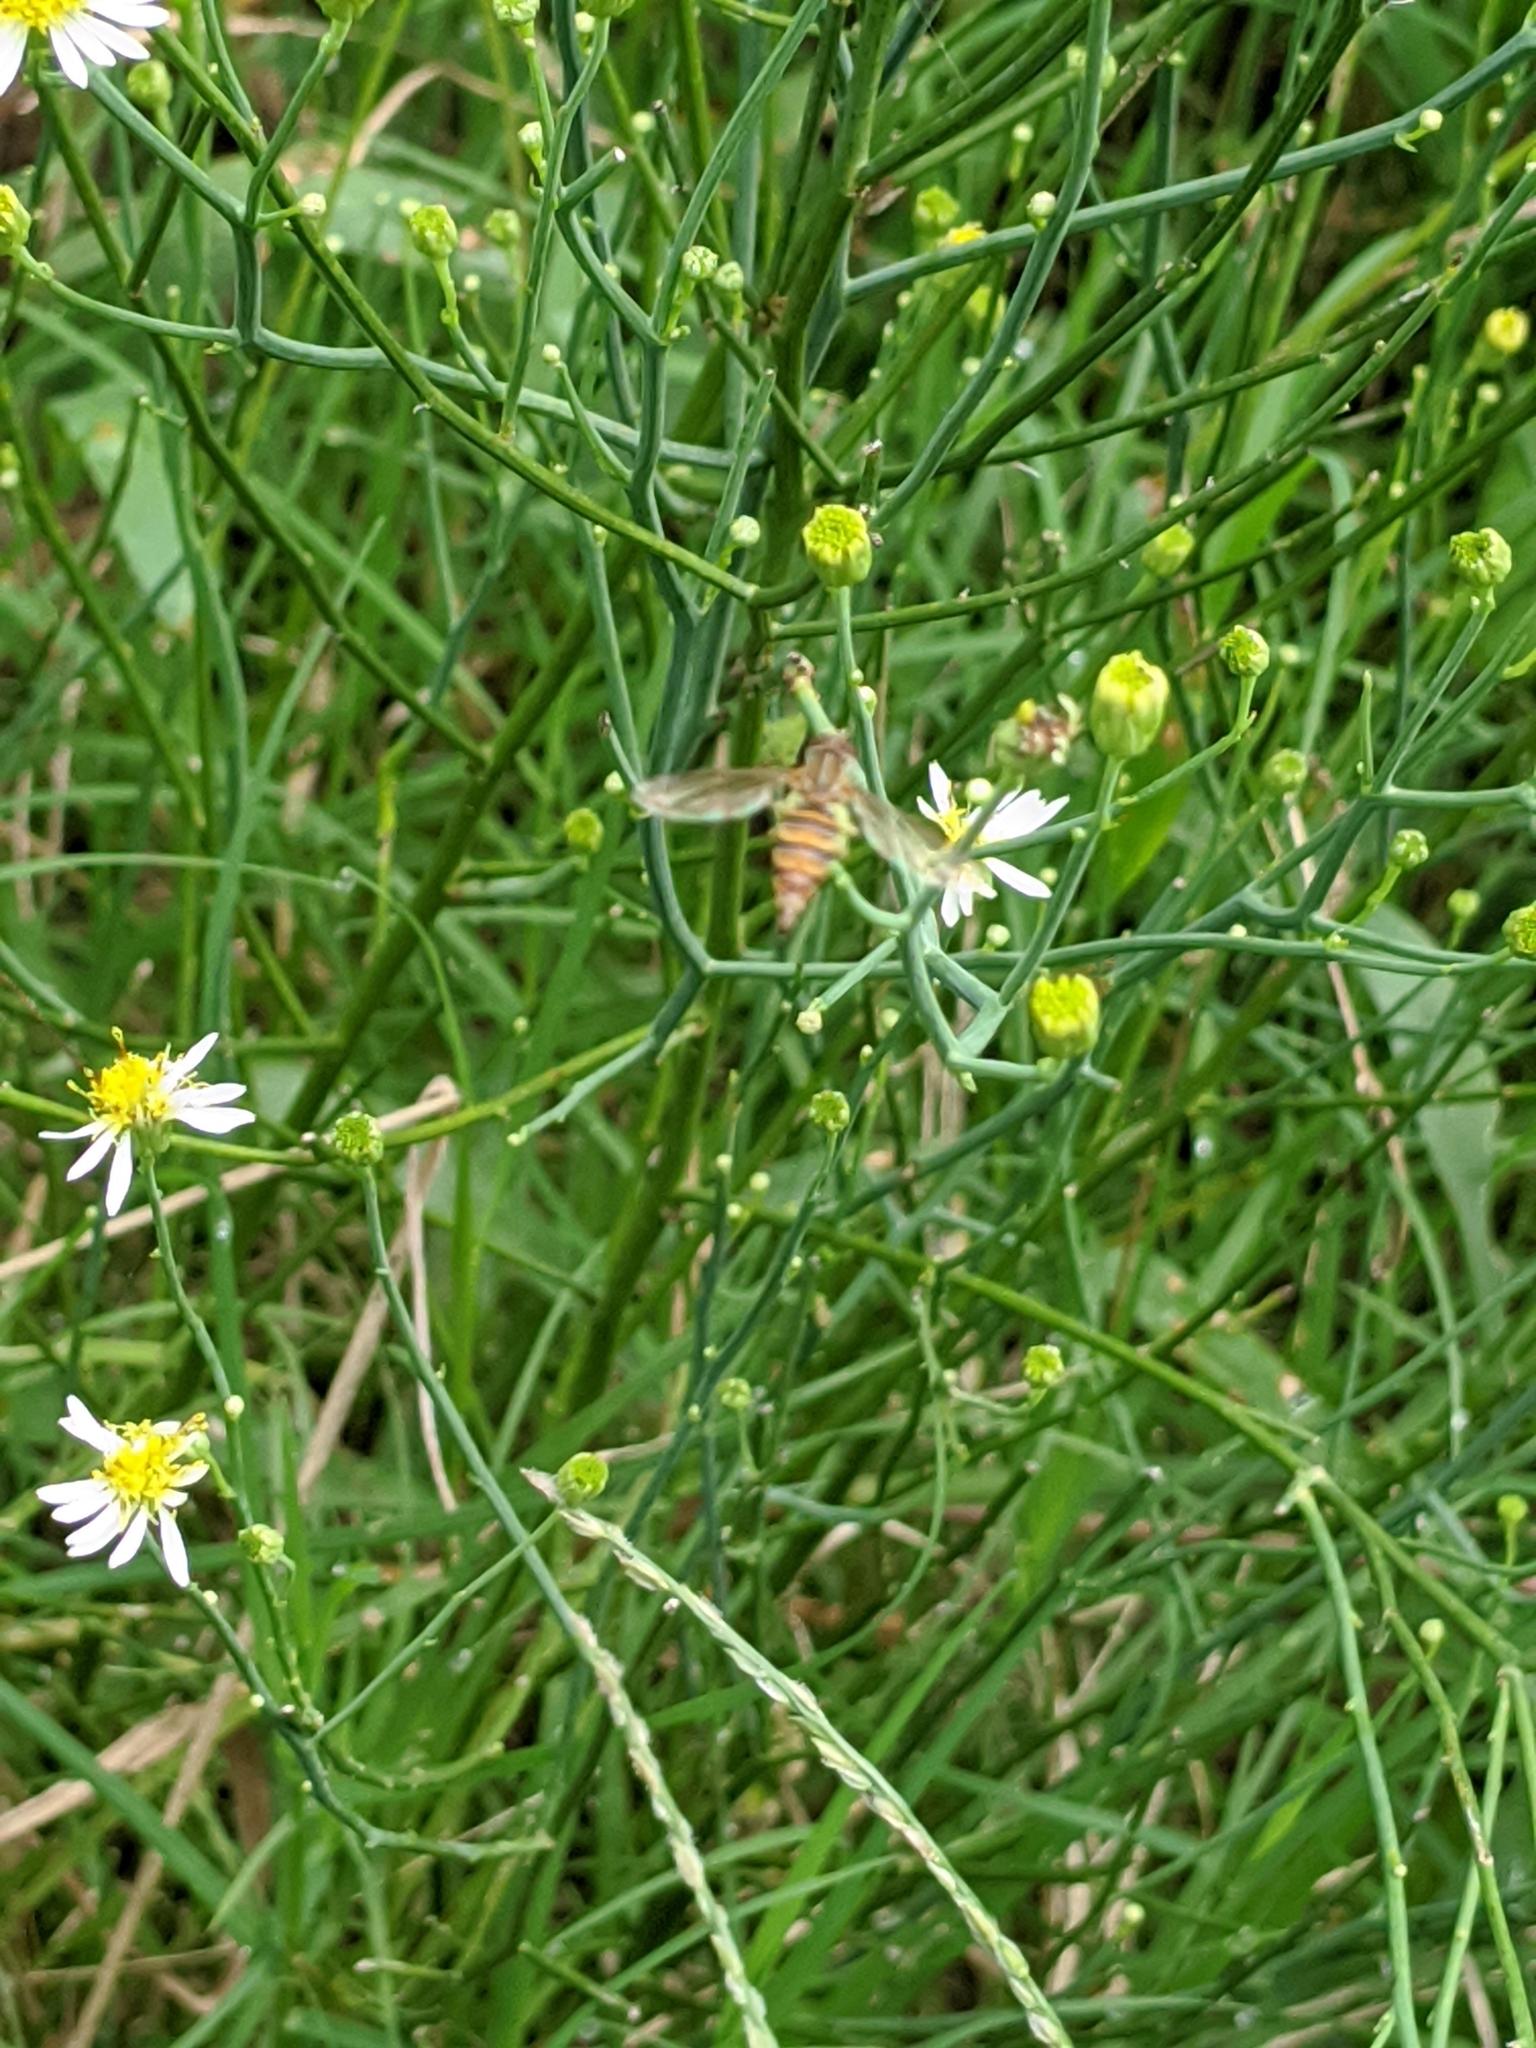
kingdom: Animalia
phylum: Arthropoda
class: Insecta
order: Diptera
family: Syrphidae
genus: Toxomerus
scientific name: Toxomerus politus
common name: Maize calligrapher
